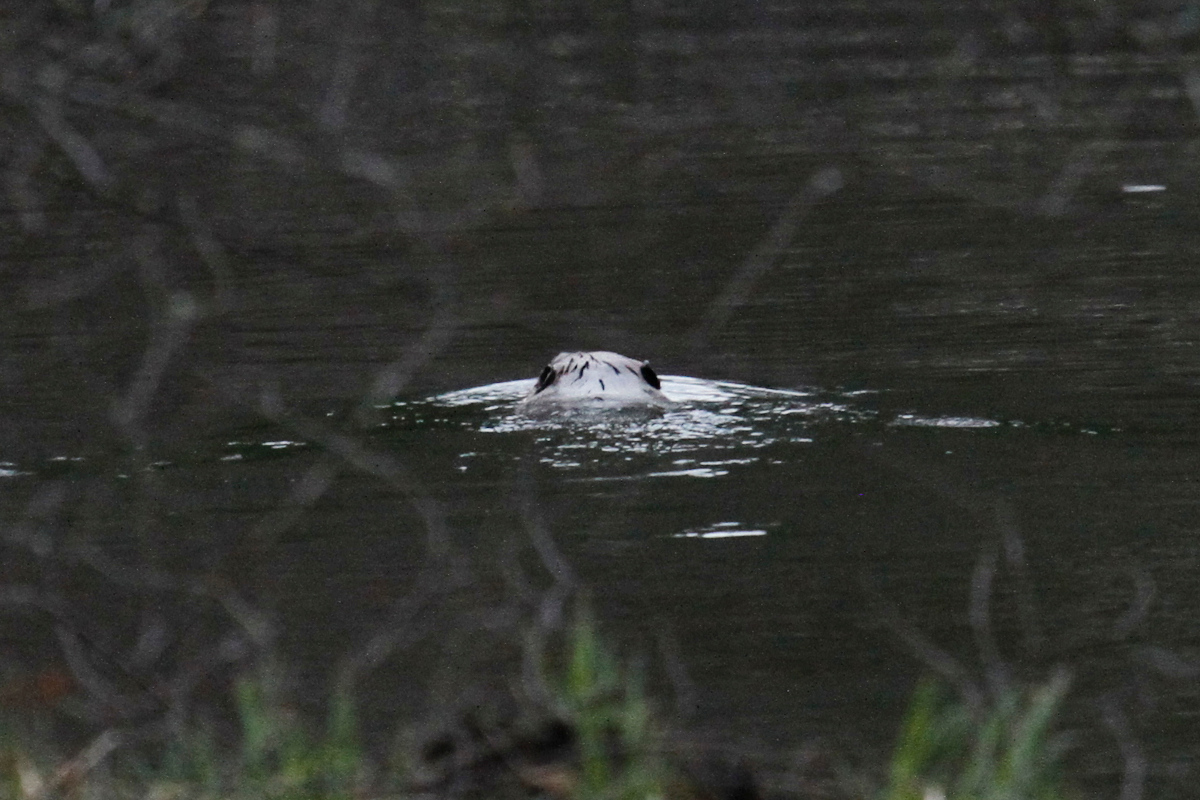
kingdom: Animalia
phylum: Chordata
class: Mammalia
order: Rodentia
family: Castoridae
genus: Castor
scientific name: Castor canadensis
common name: American beaver
